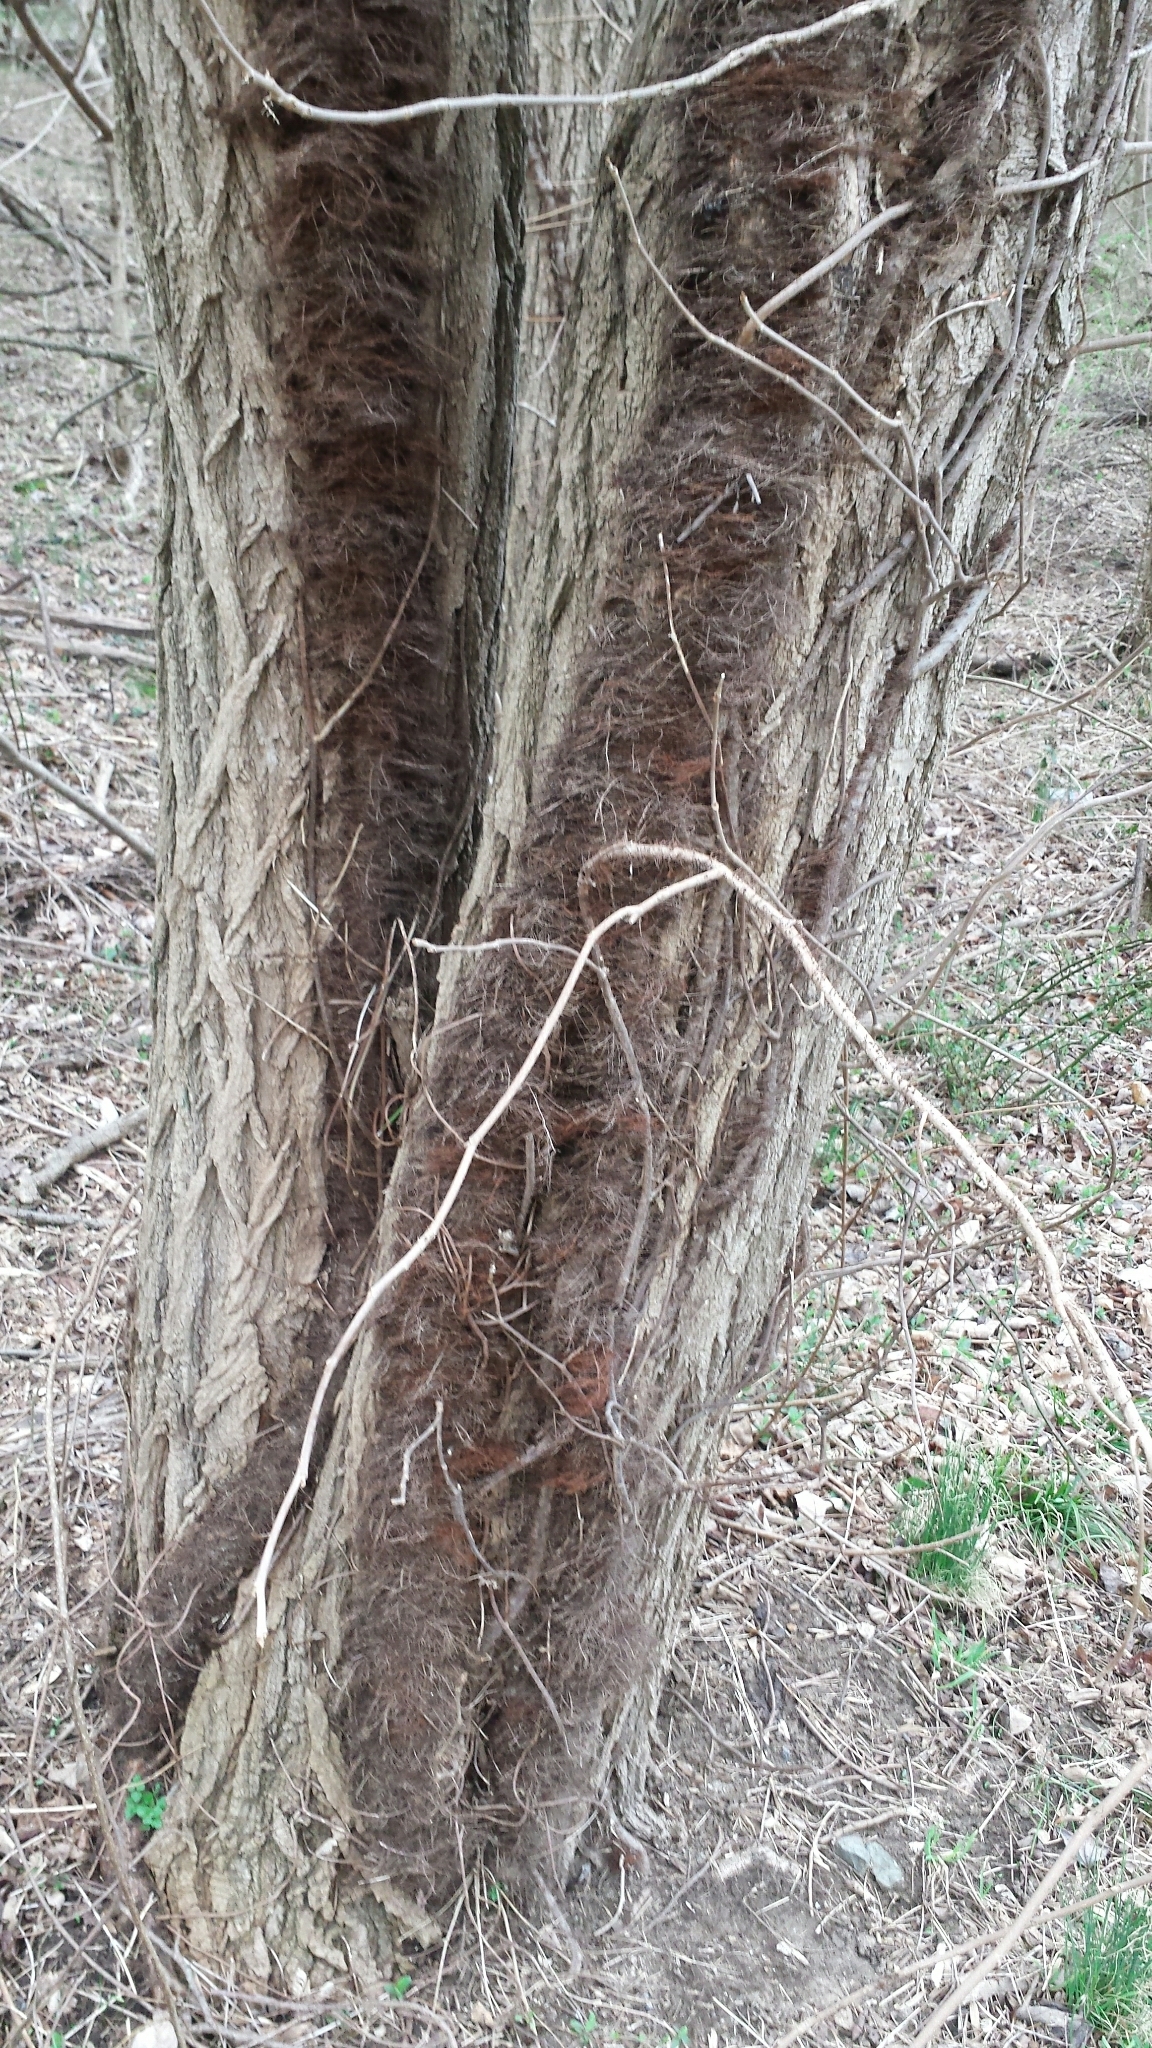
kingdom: Plantae
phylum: Tracheophyta
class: Magnoliopsida
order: Sapindales
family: Anacardiaceae
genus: Toxicodendron
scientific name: Toxicodendron radicans
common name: Poison ivy
